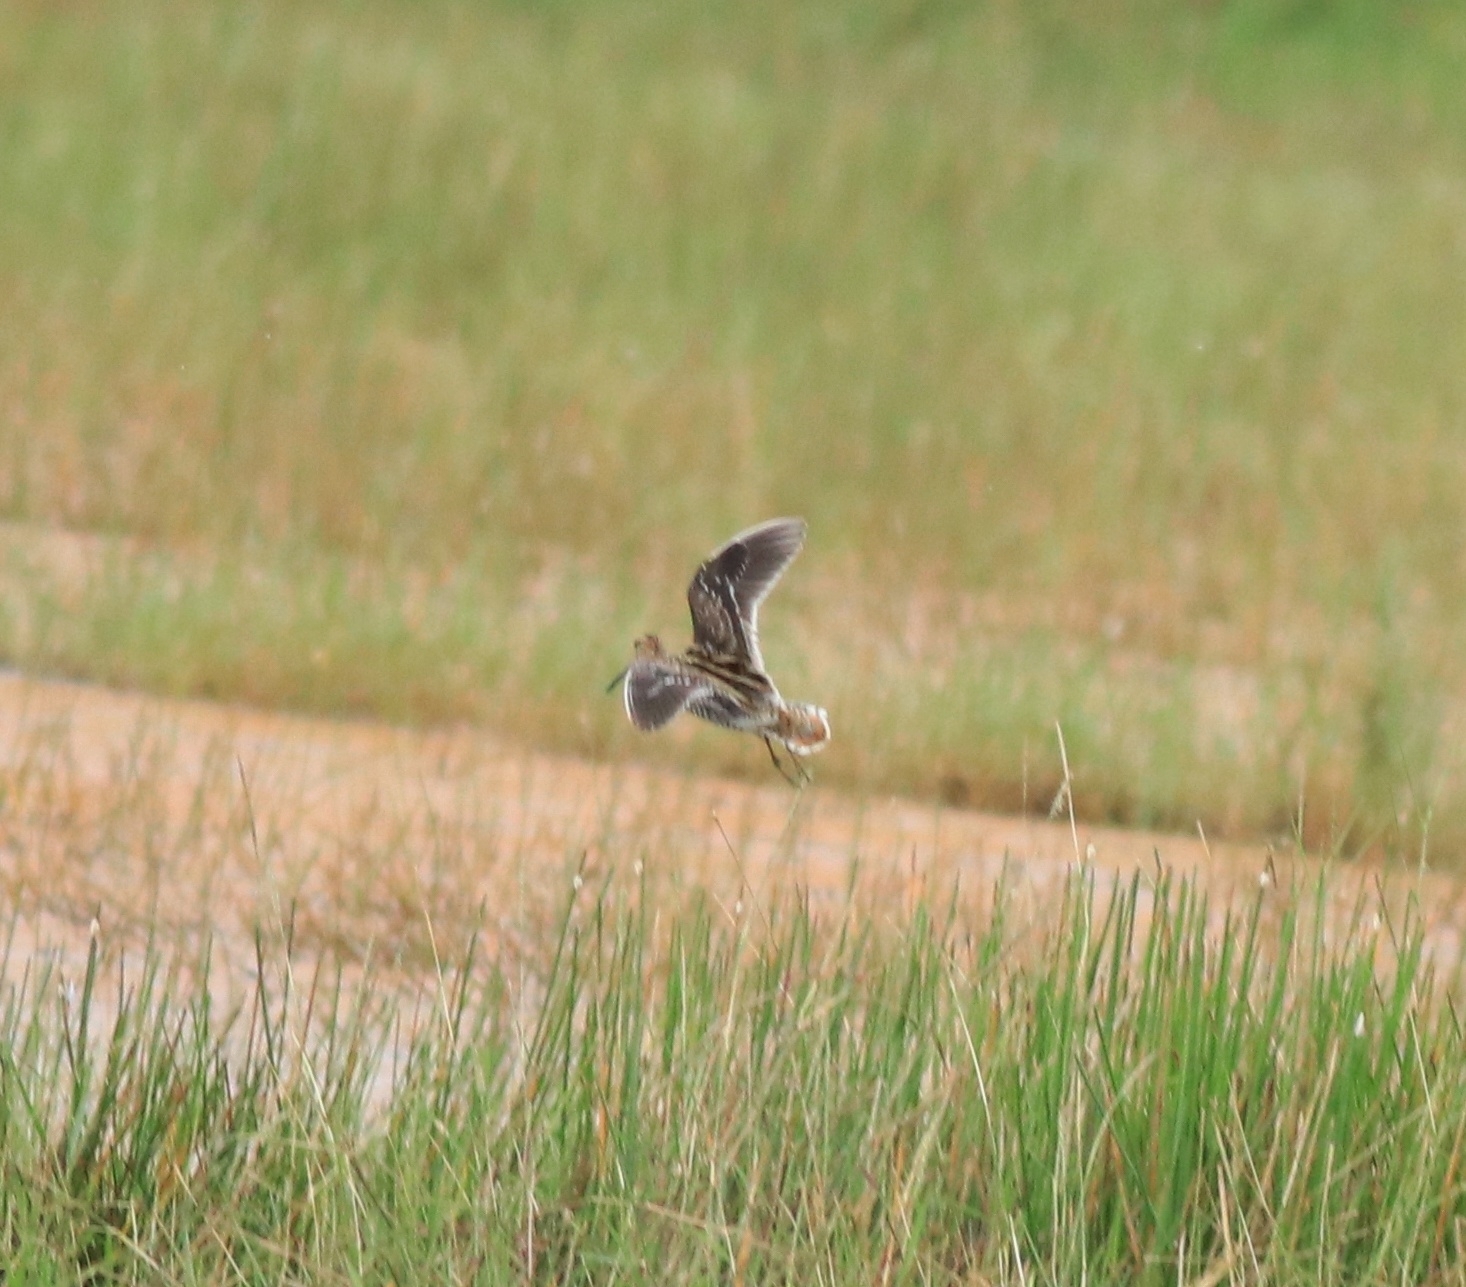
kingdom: Animalia
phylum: Chordata
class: Aves
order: Charadriiformes
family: Scolopacidae
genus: Gallinago
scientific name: Gallinago gallinago
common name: Common snipe
